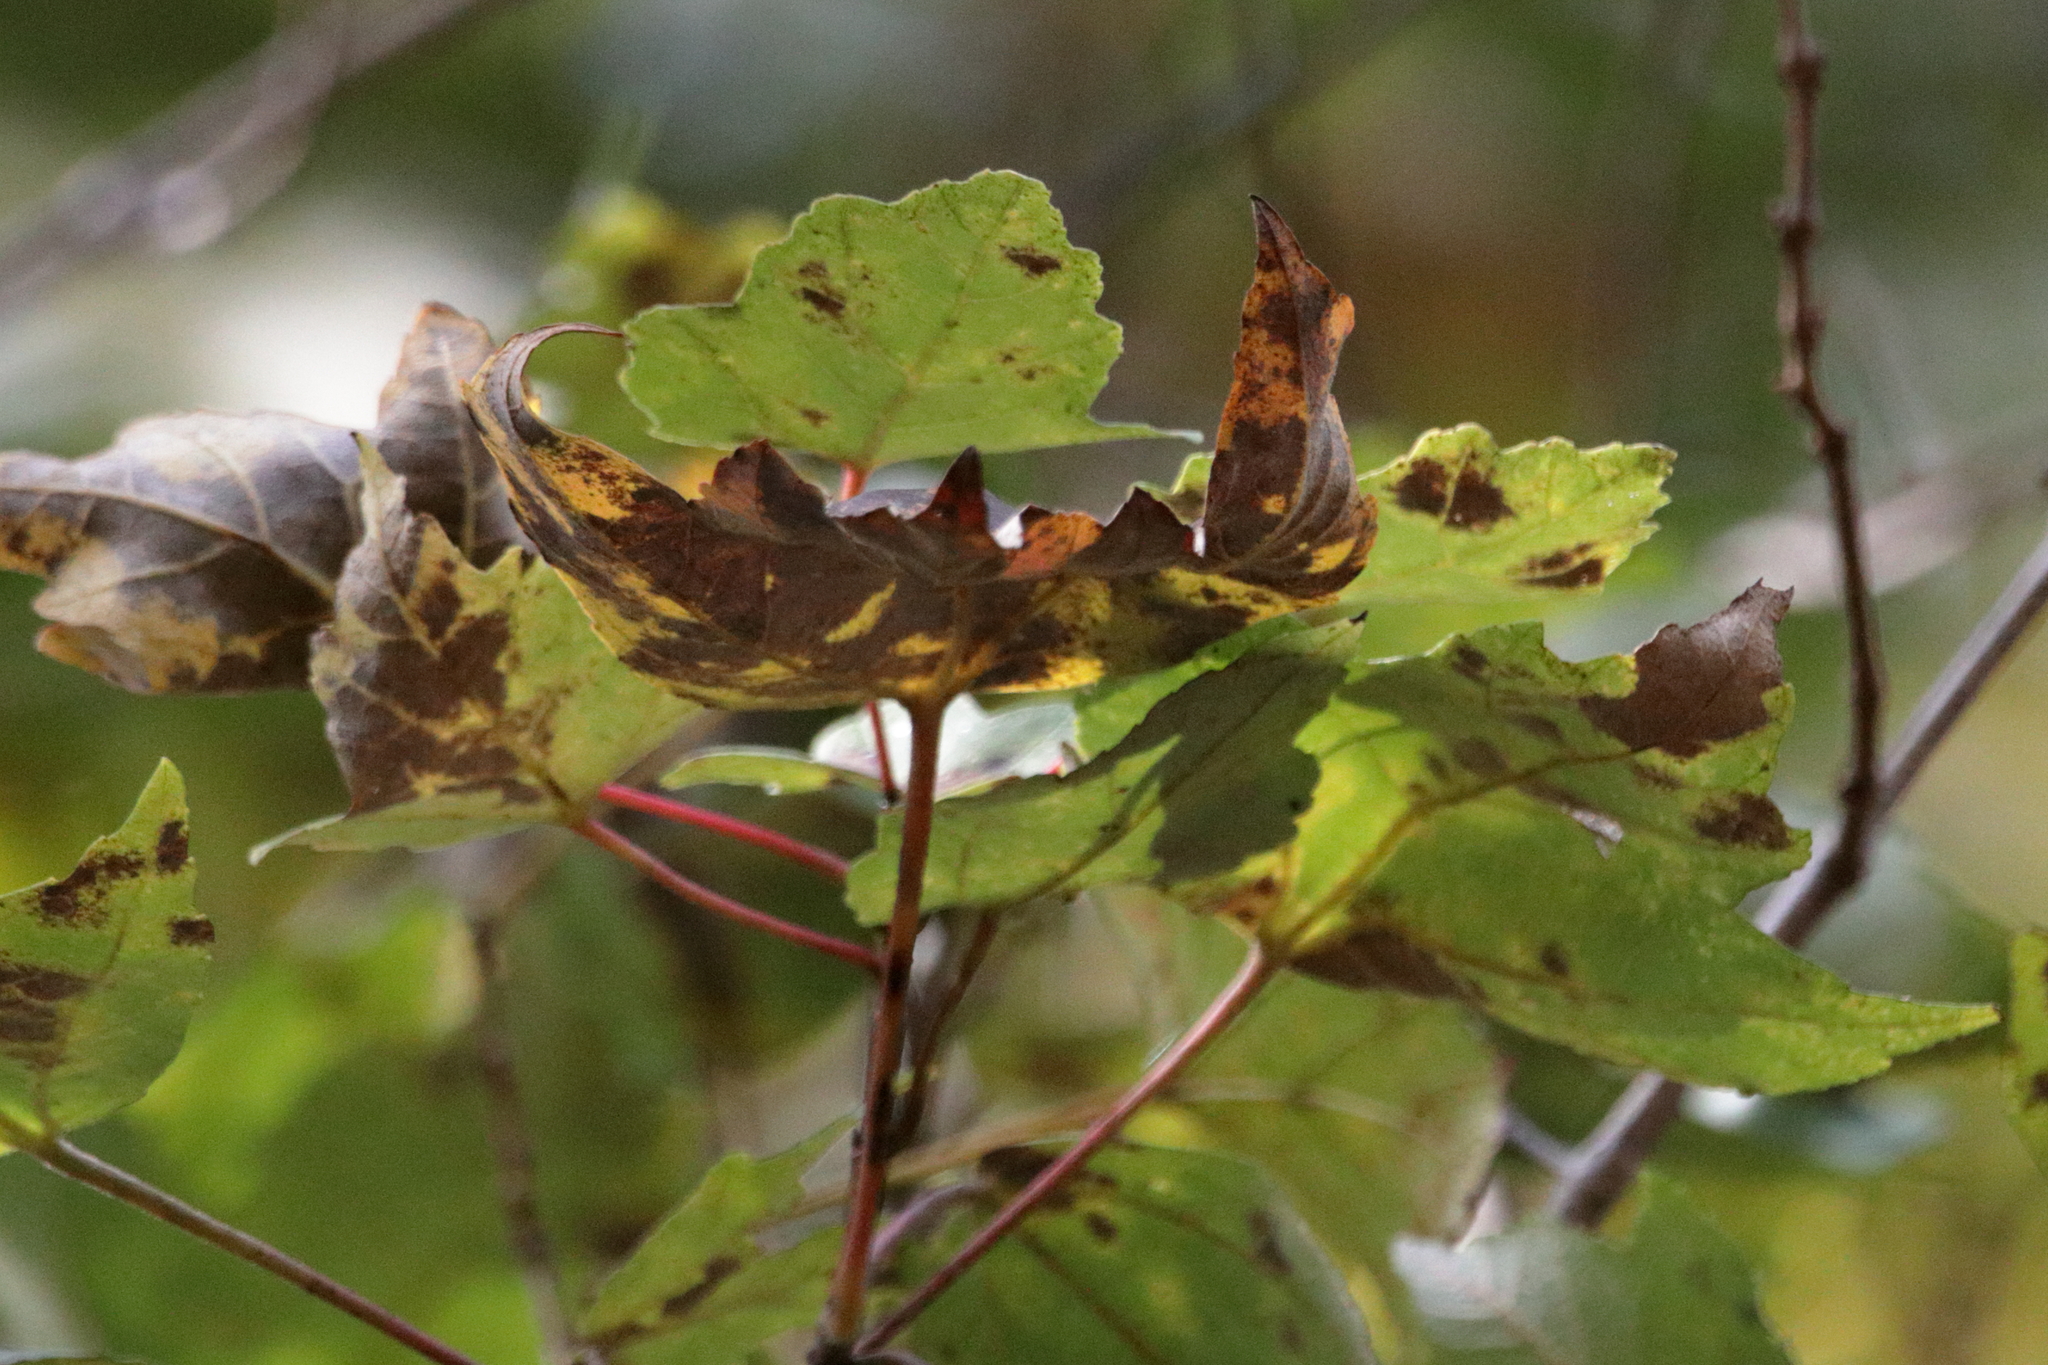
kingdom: Plantae
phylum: Tracheophyta
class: Magnoliopsida
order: Sapindales
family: Sapindaceae
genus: Acer
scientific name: Acer rubrum
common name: Red maple
